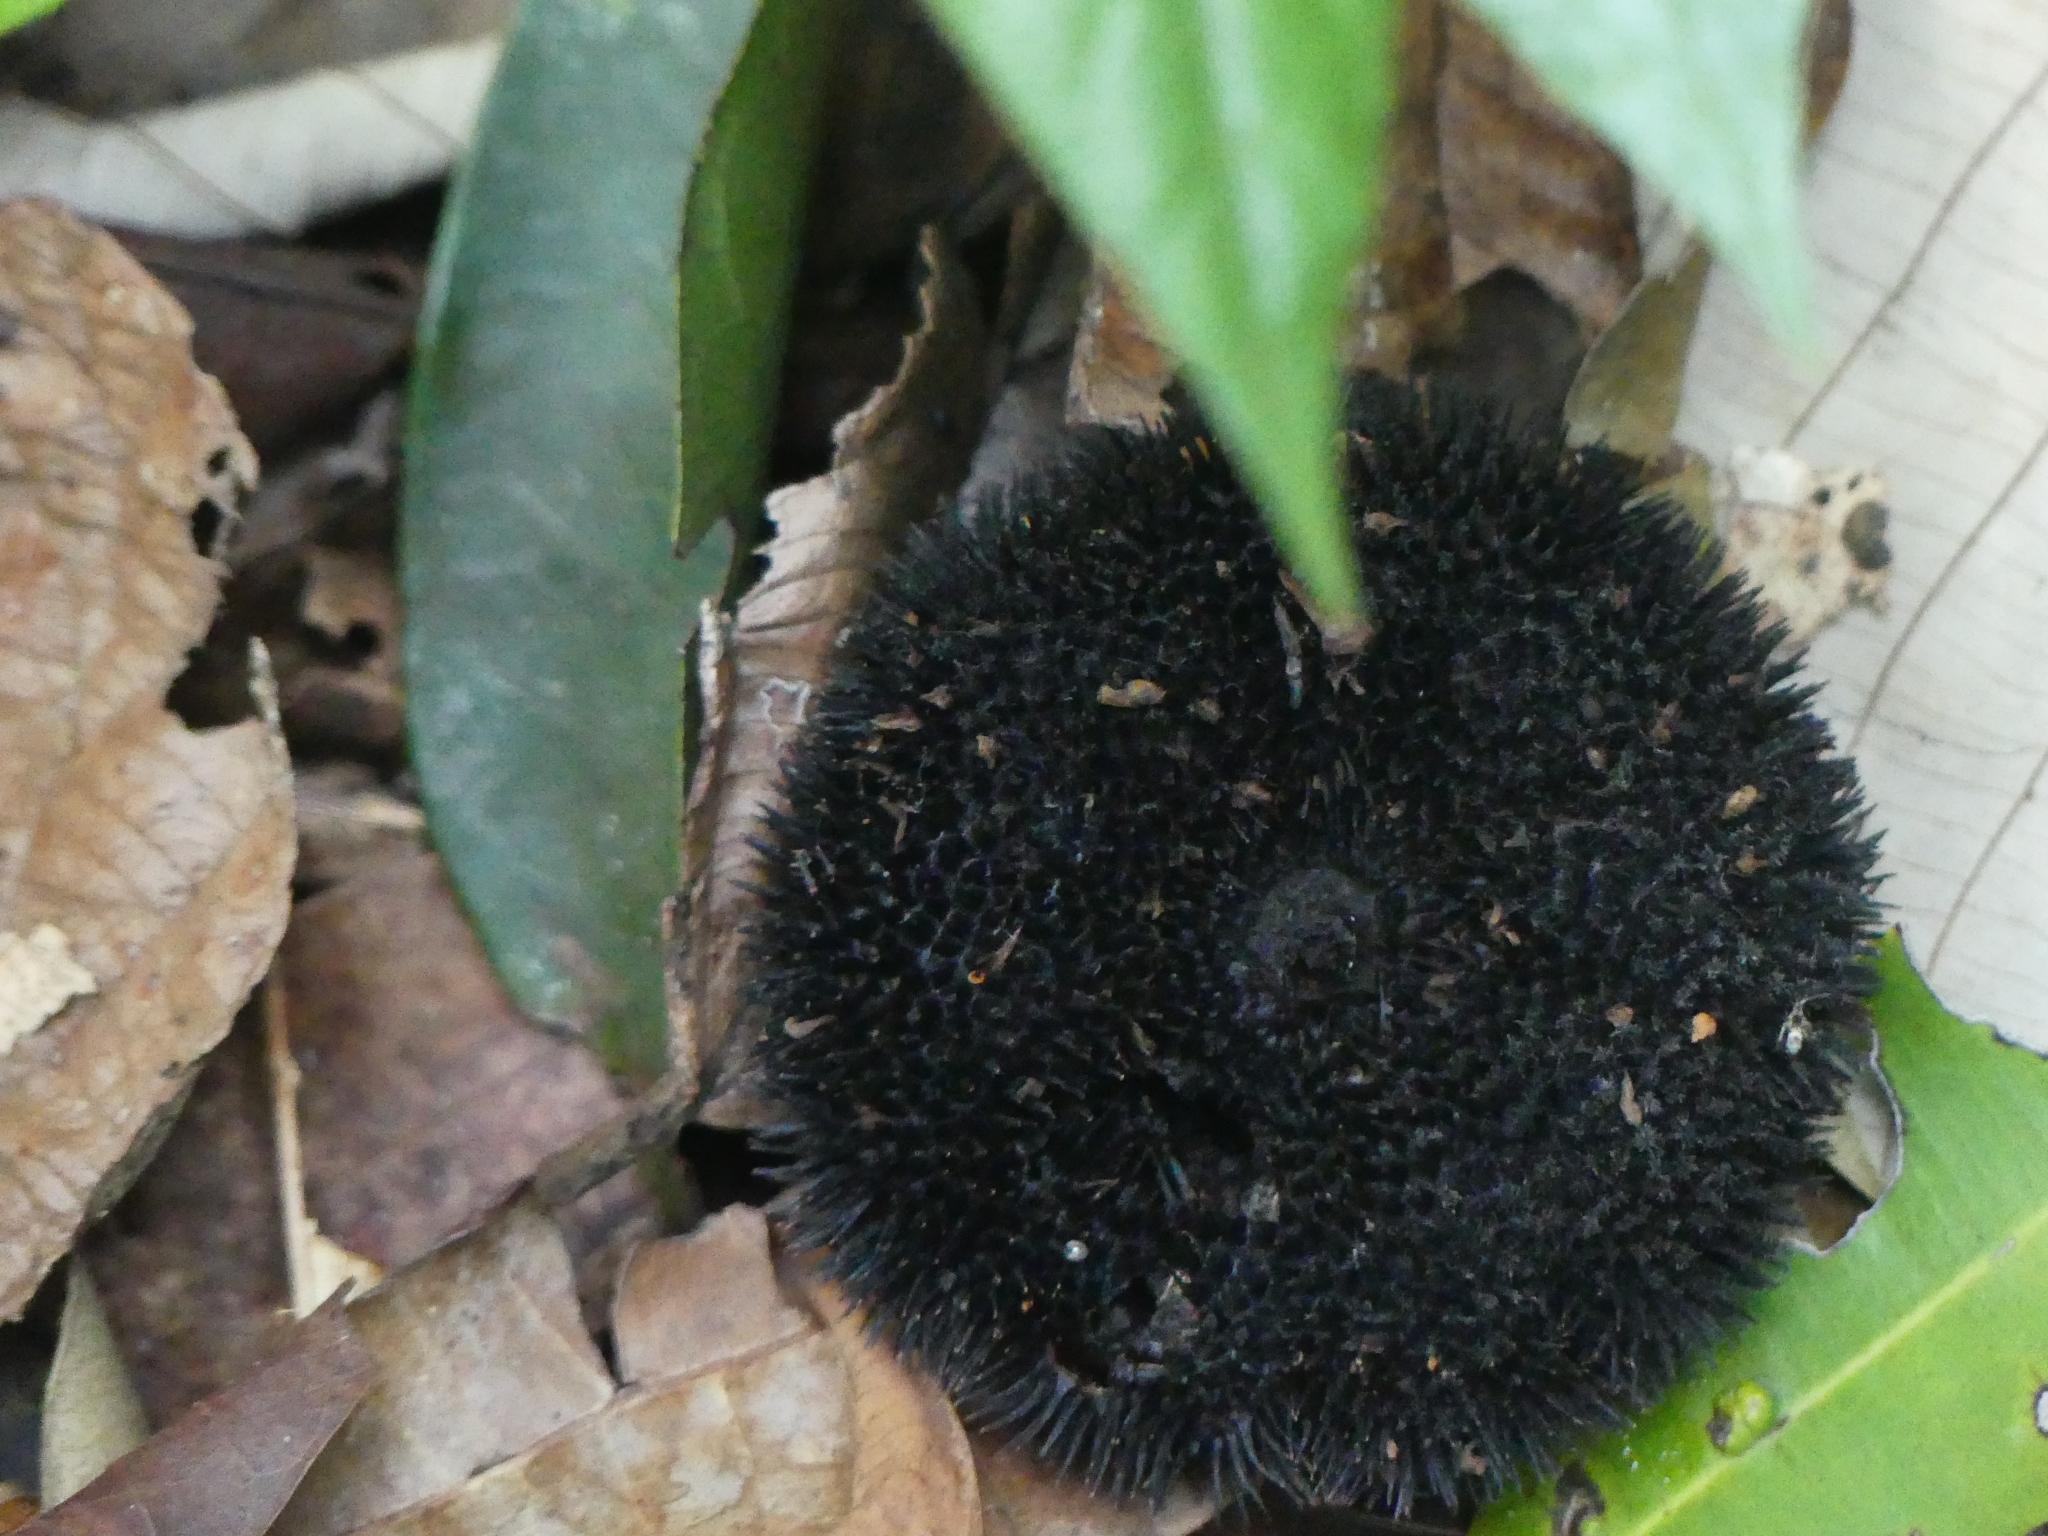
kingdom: Plantae
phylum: Tracheophyta
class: Magnoliopsida
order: Malvales
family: Malvaceae
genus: Apeiba
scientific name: Apeiba petoumo
